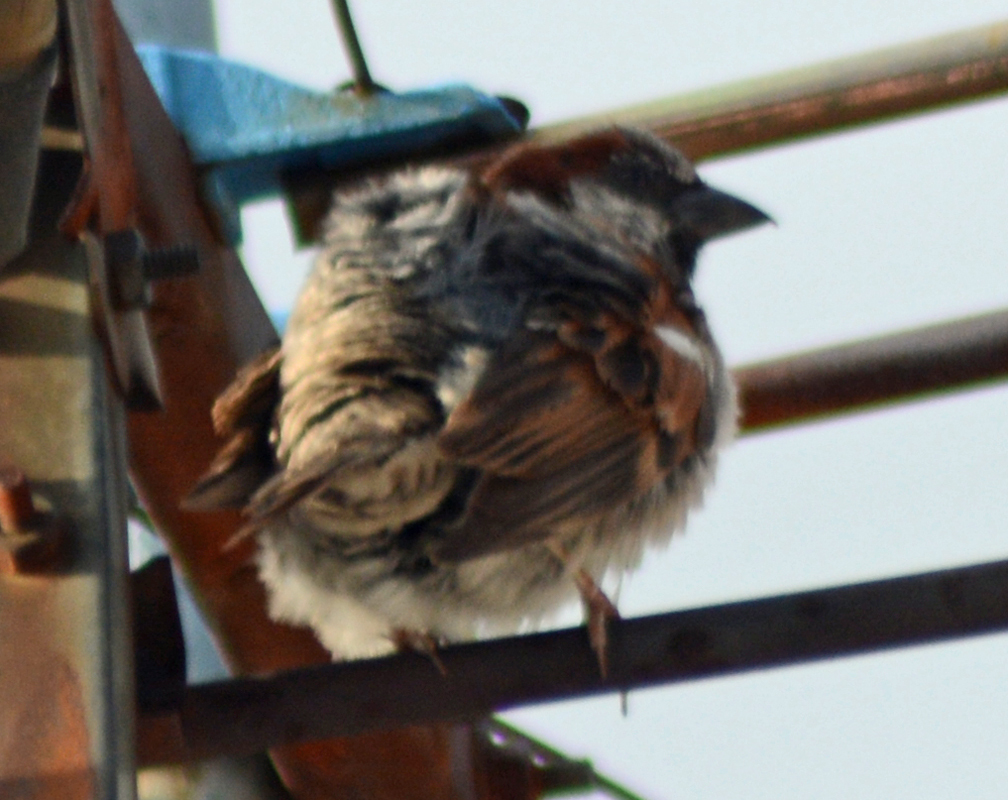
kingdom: Animalia
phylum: Chordata
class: Aves
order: Passeriformes
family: Passeridae
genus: Passer
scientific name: Passer domesticus
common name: House sparrow
